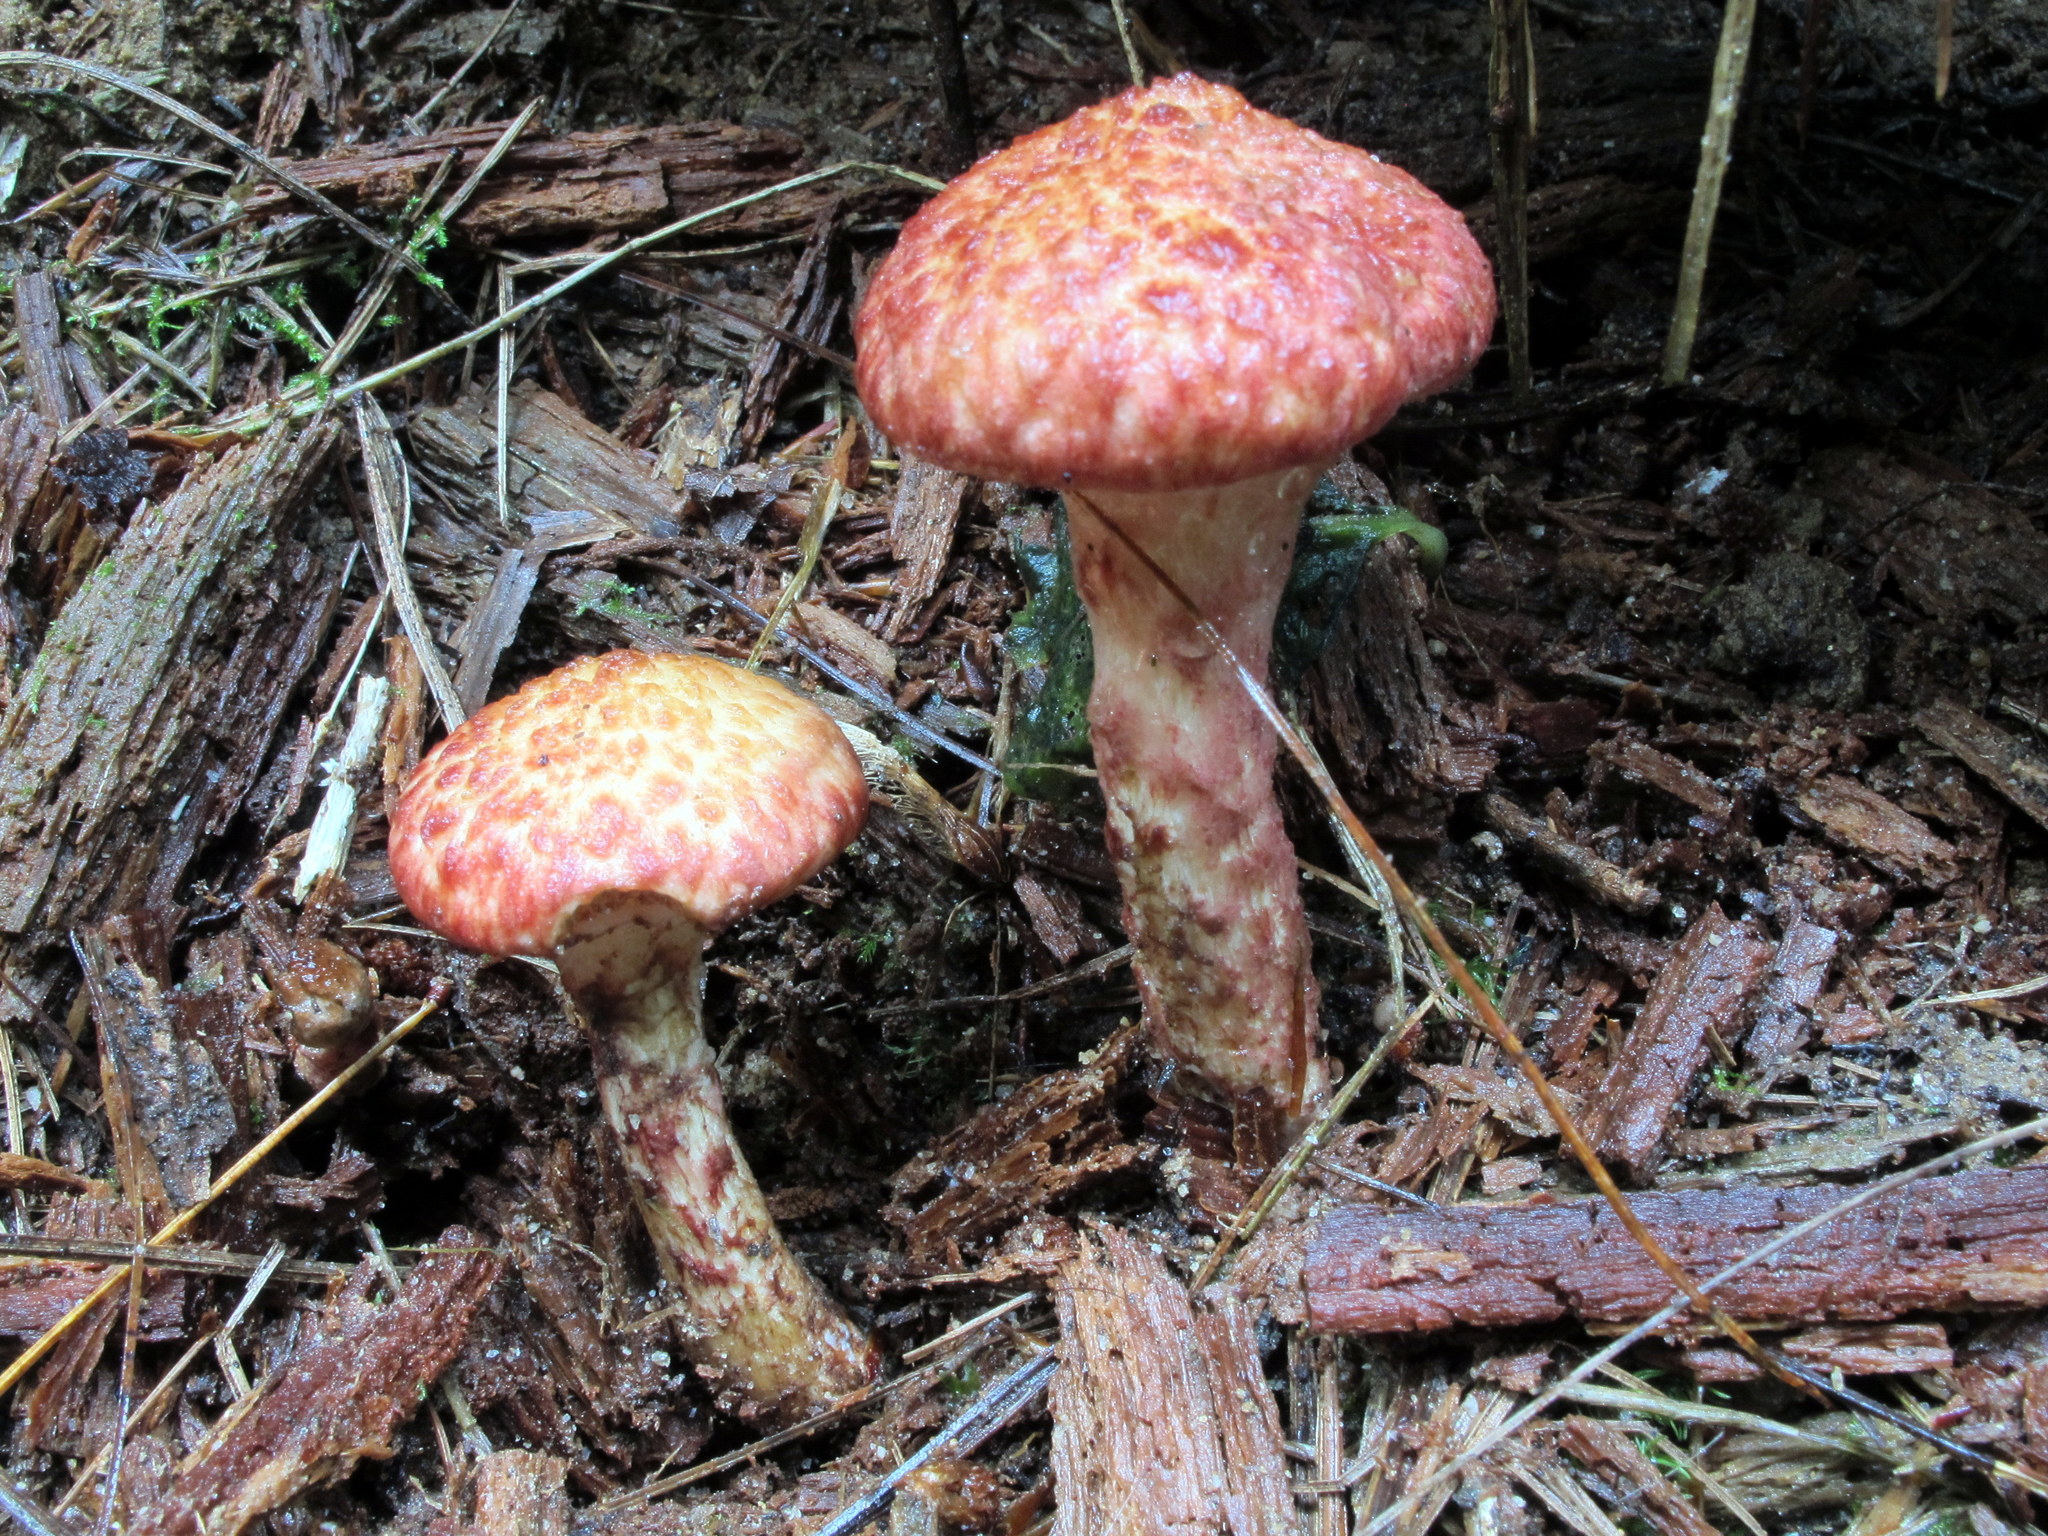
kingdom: Fungi
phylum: Basidiomycota
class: Agaricomycetes
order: Boletales
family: Suillaceae
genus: Suillus
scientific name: Suillus spraguei
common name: Painted suillus
